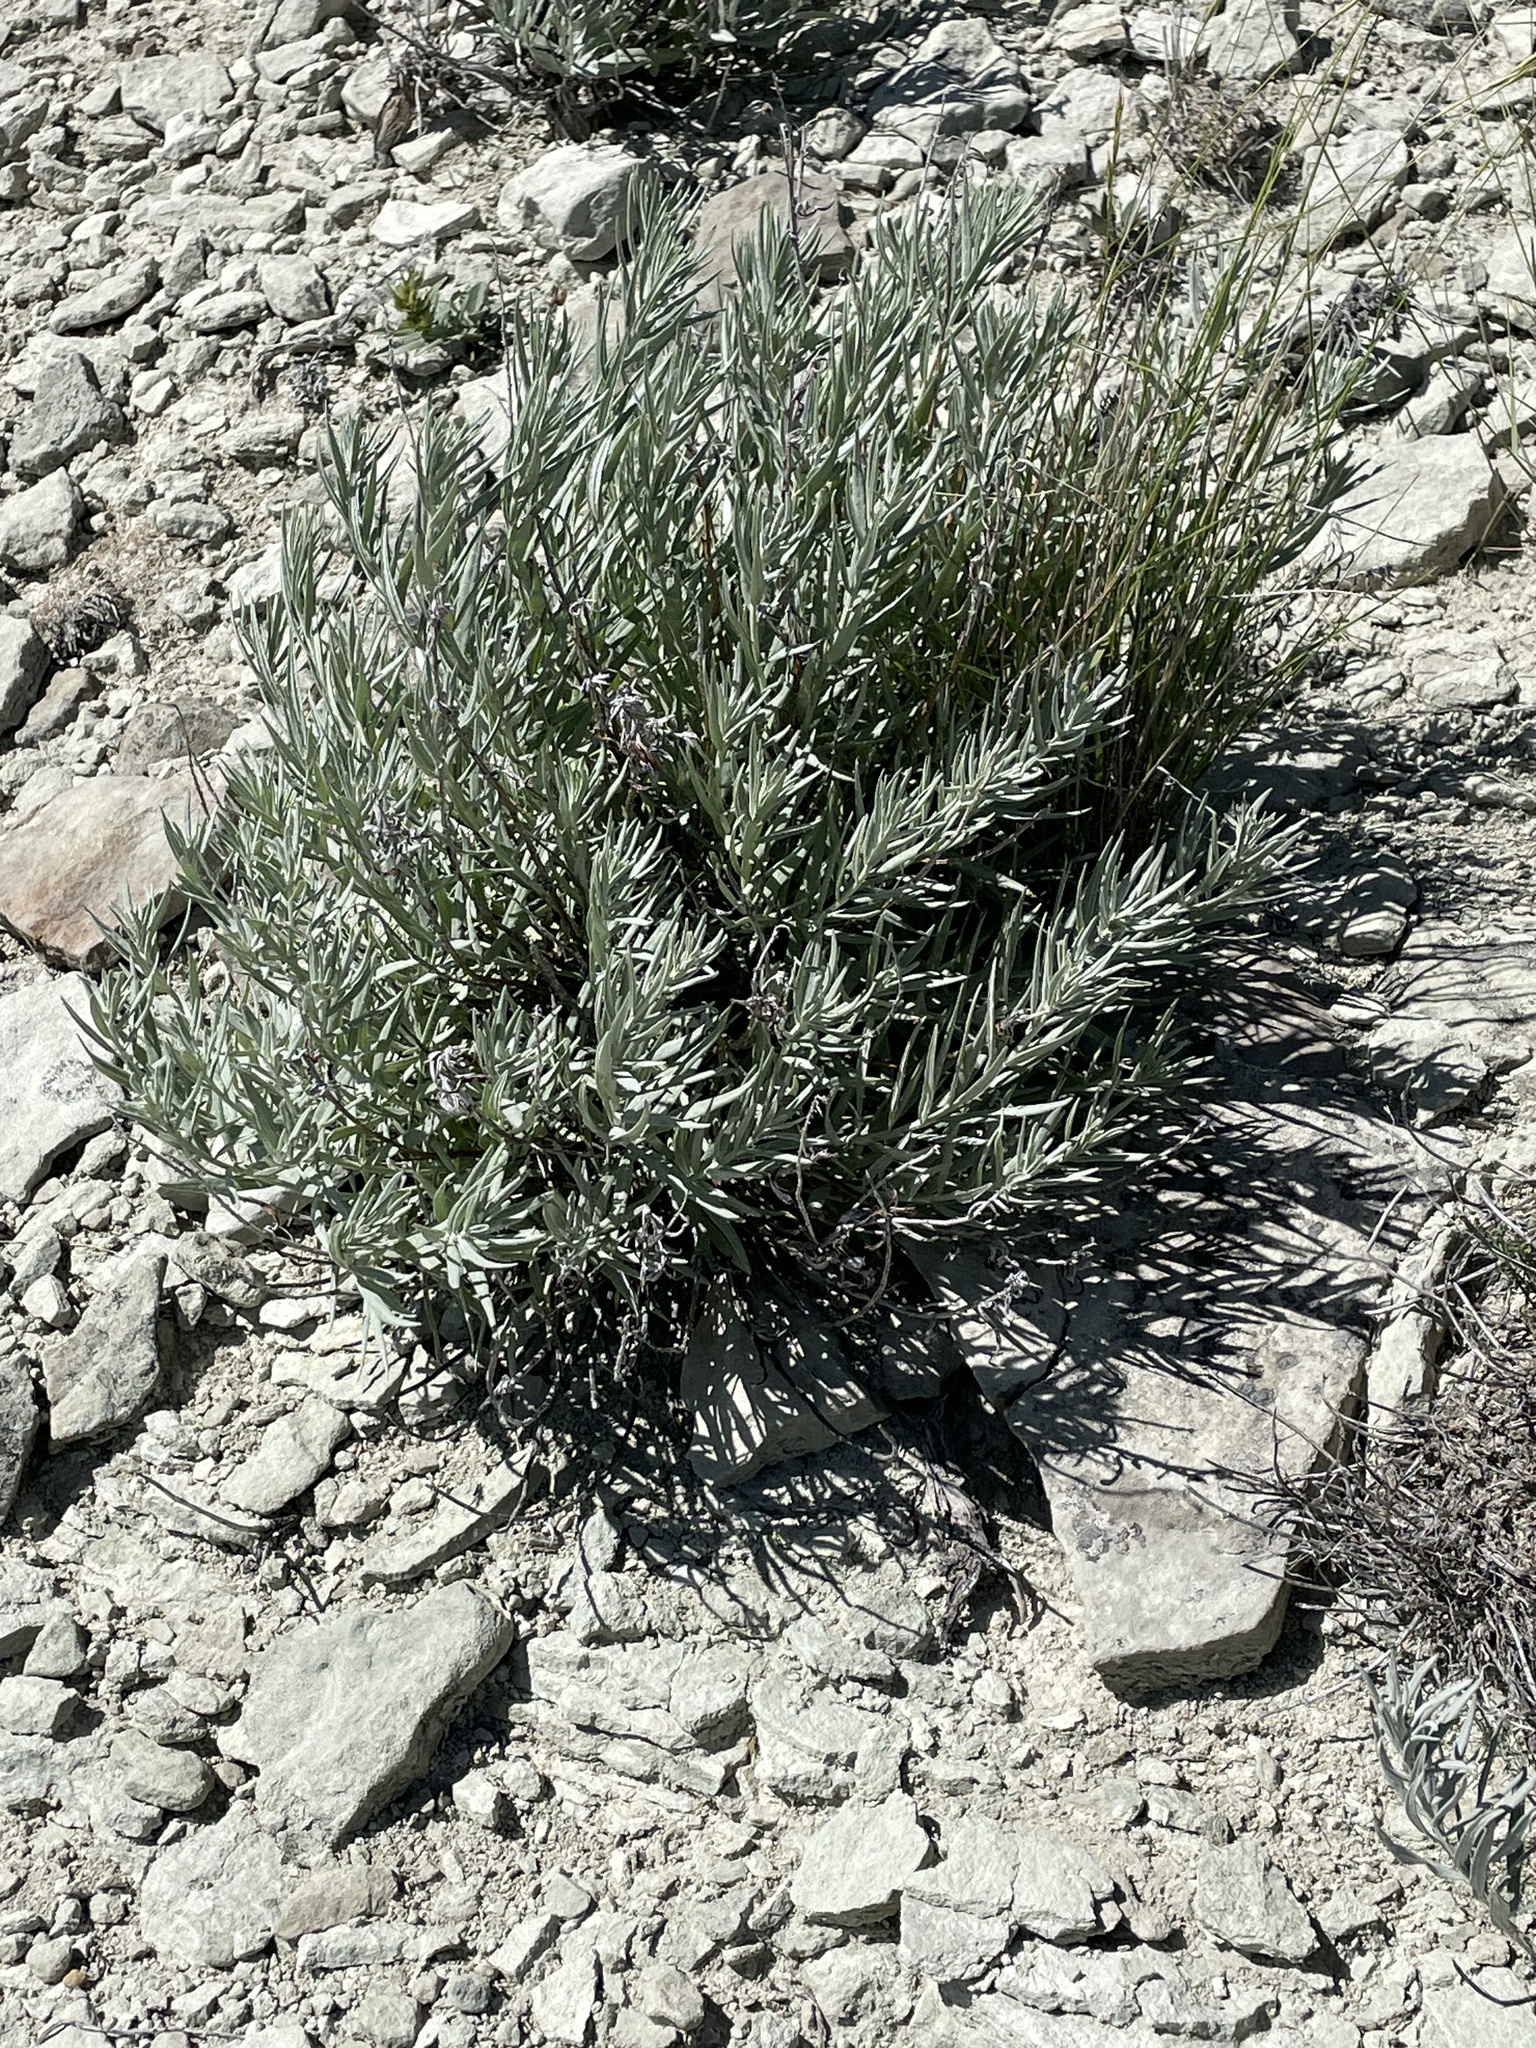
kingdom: Plantae
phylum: Tracheophyta
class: Magnoliopsida
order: Asterales
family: Asteraceae
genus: Artemisia
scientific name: Artemisia longifolia
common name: Long-leaved mugwort
